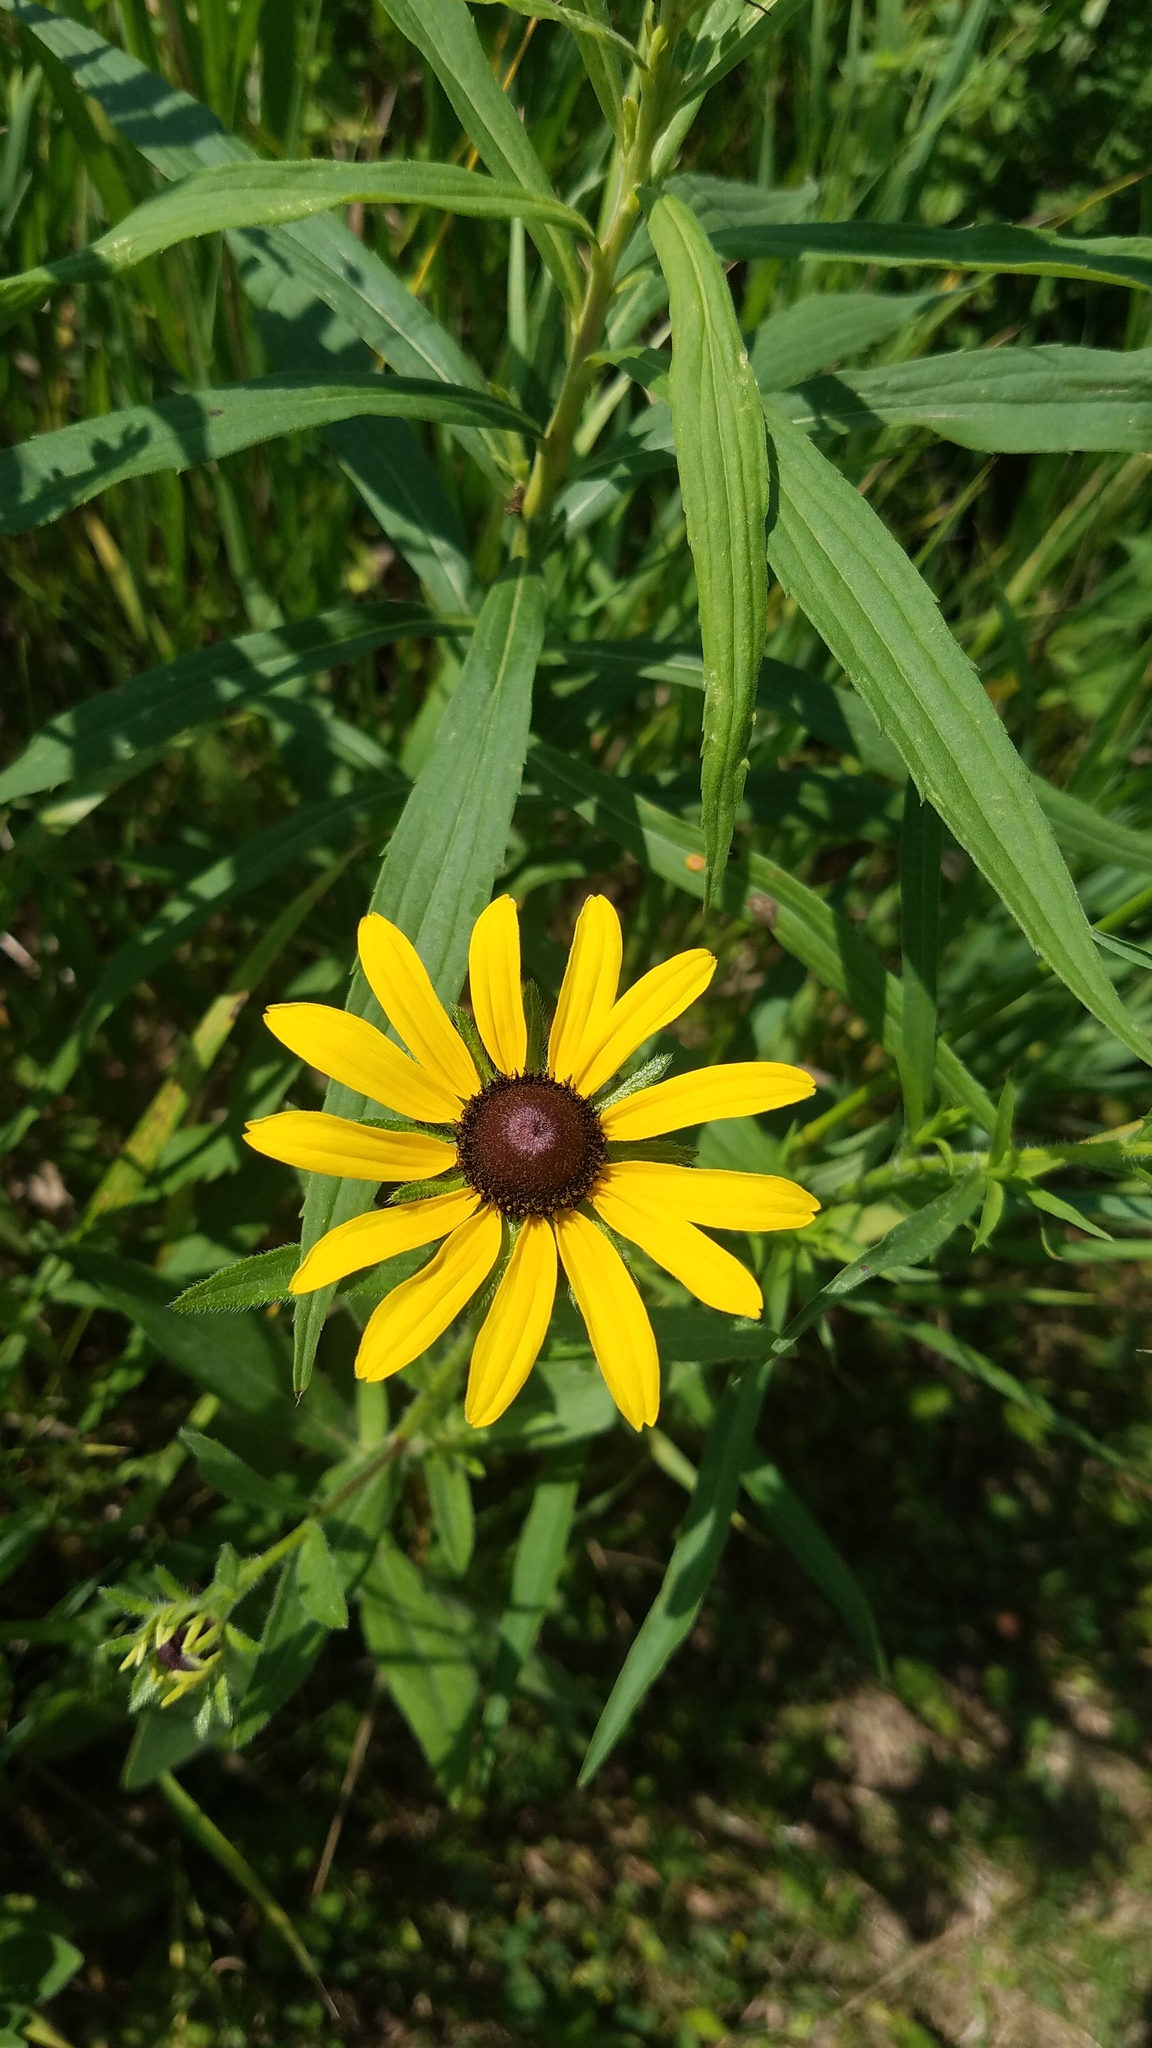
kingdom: Plantae
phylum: Tracheophyta
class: Magnoliopsida
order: Asterales
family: Asteraceae
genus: Rudbeckia
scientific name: Rudbeckia hirta
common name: Black-eyed-susan
